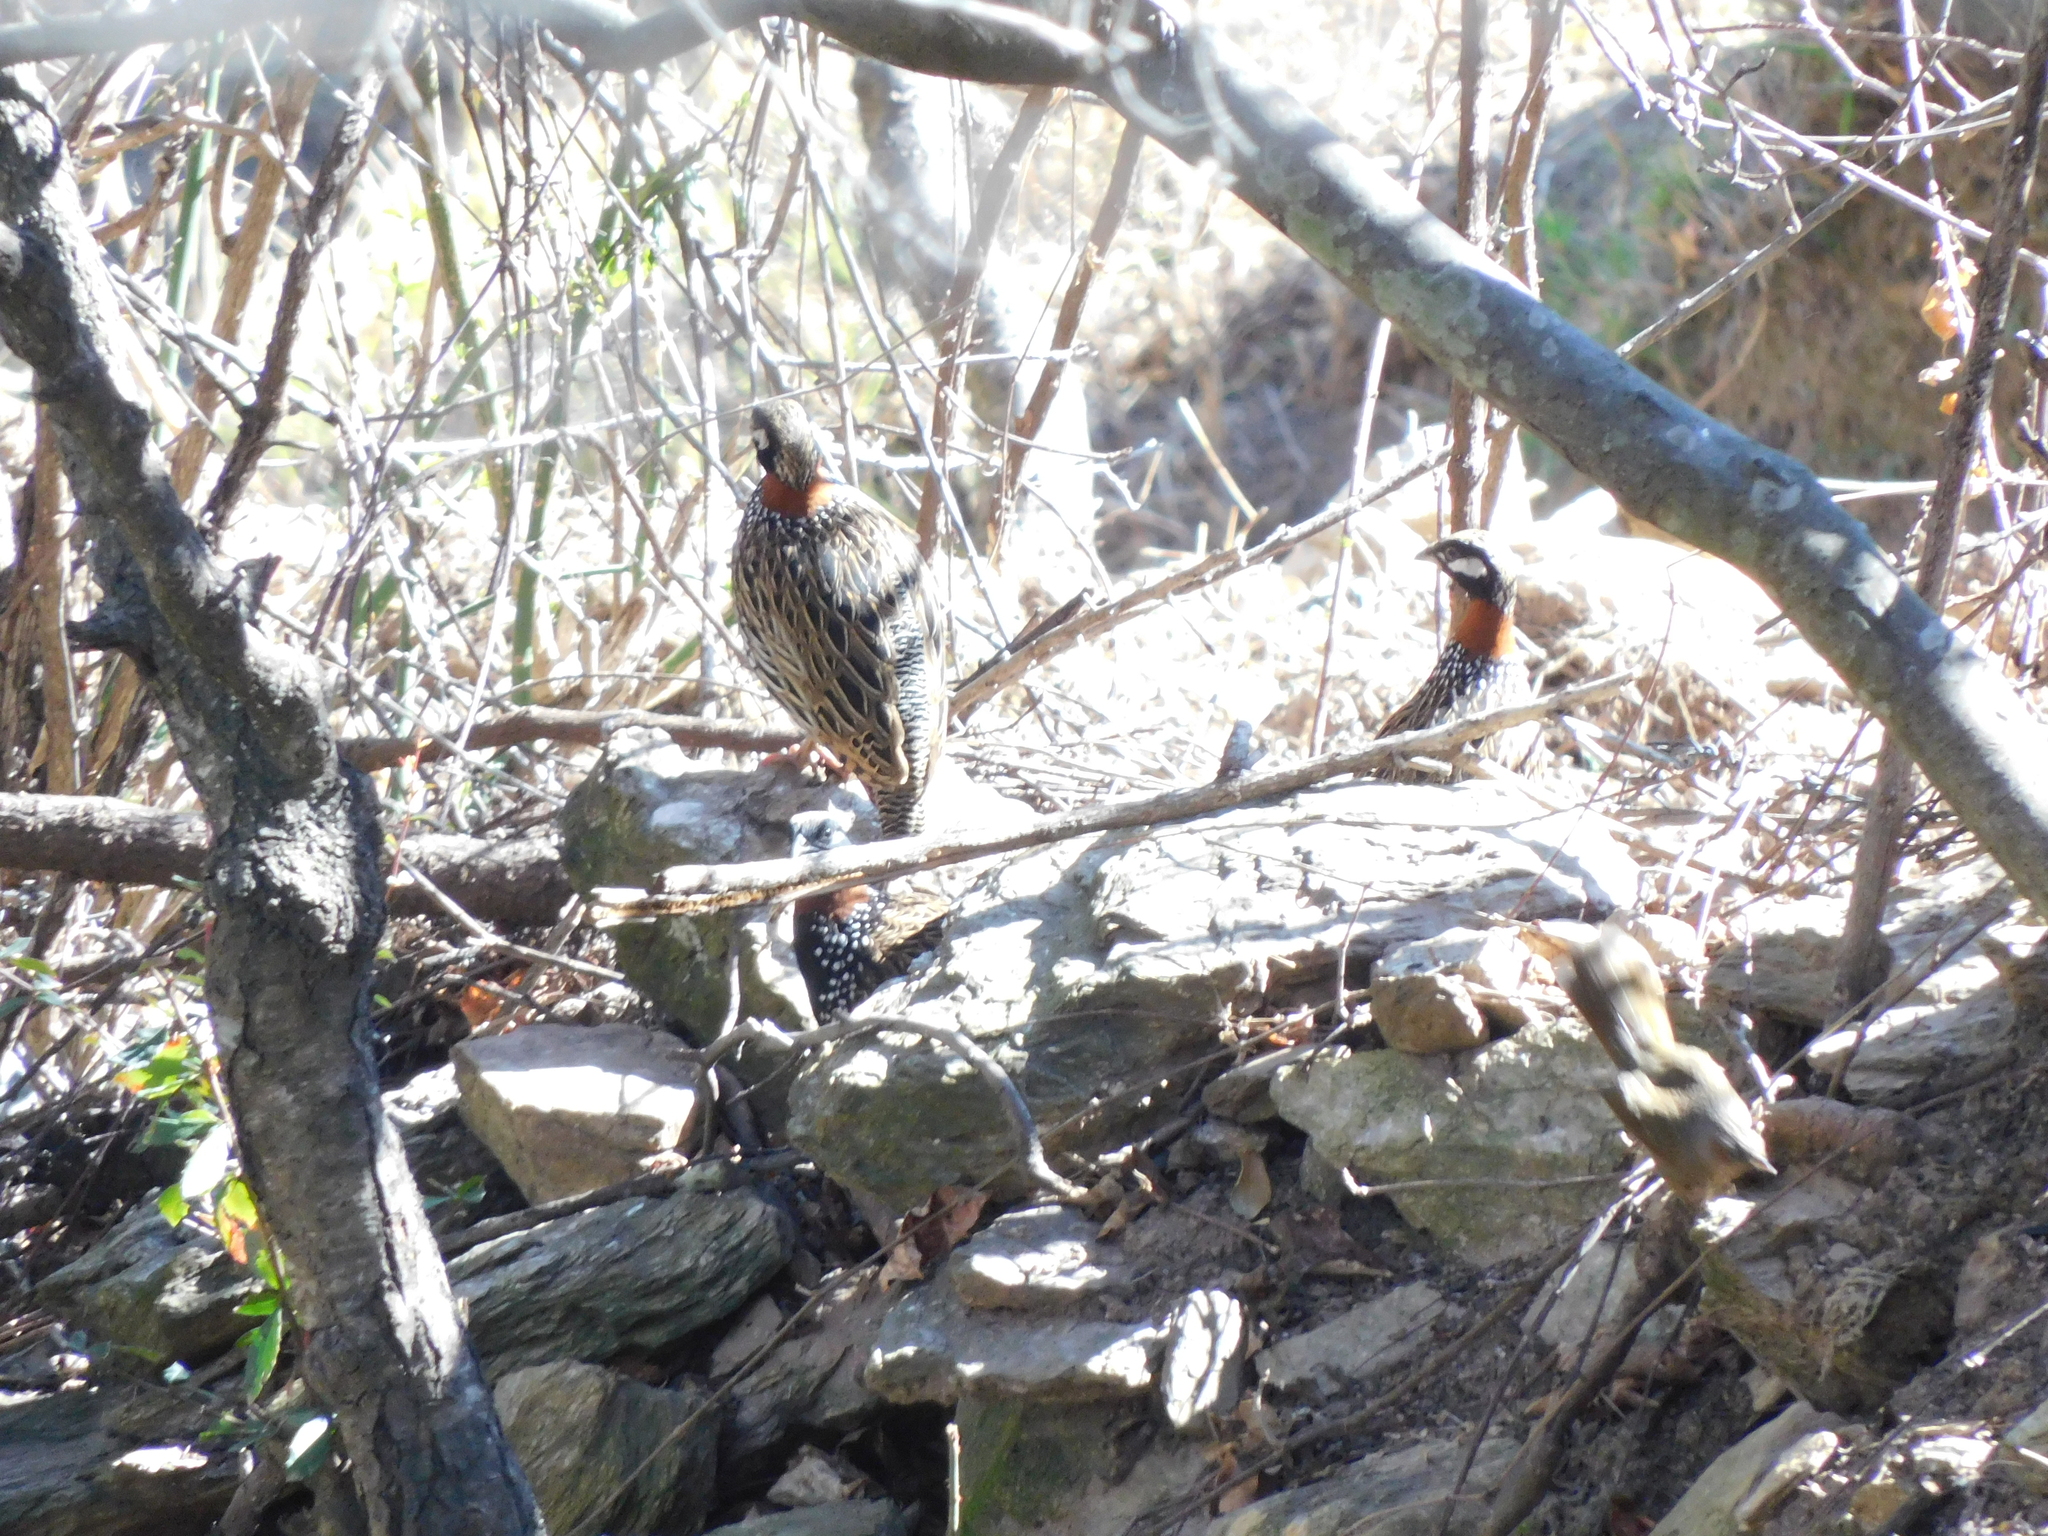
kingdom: Animalia
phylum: Chordata
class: Aves
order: Galliformes
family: Phasianidae
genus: Francolinus
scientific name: Francolinus francolinus
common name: Black francolin
